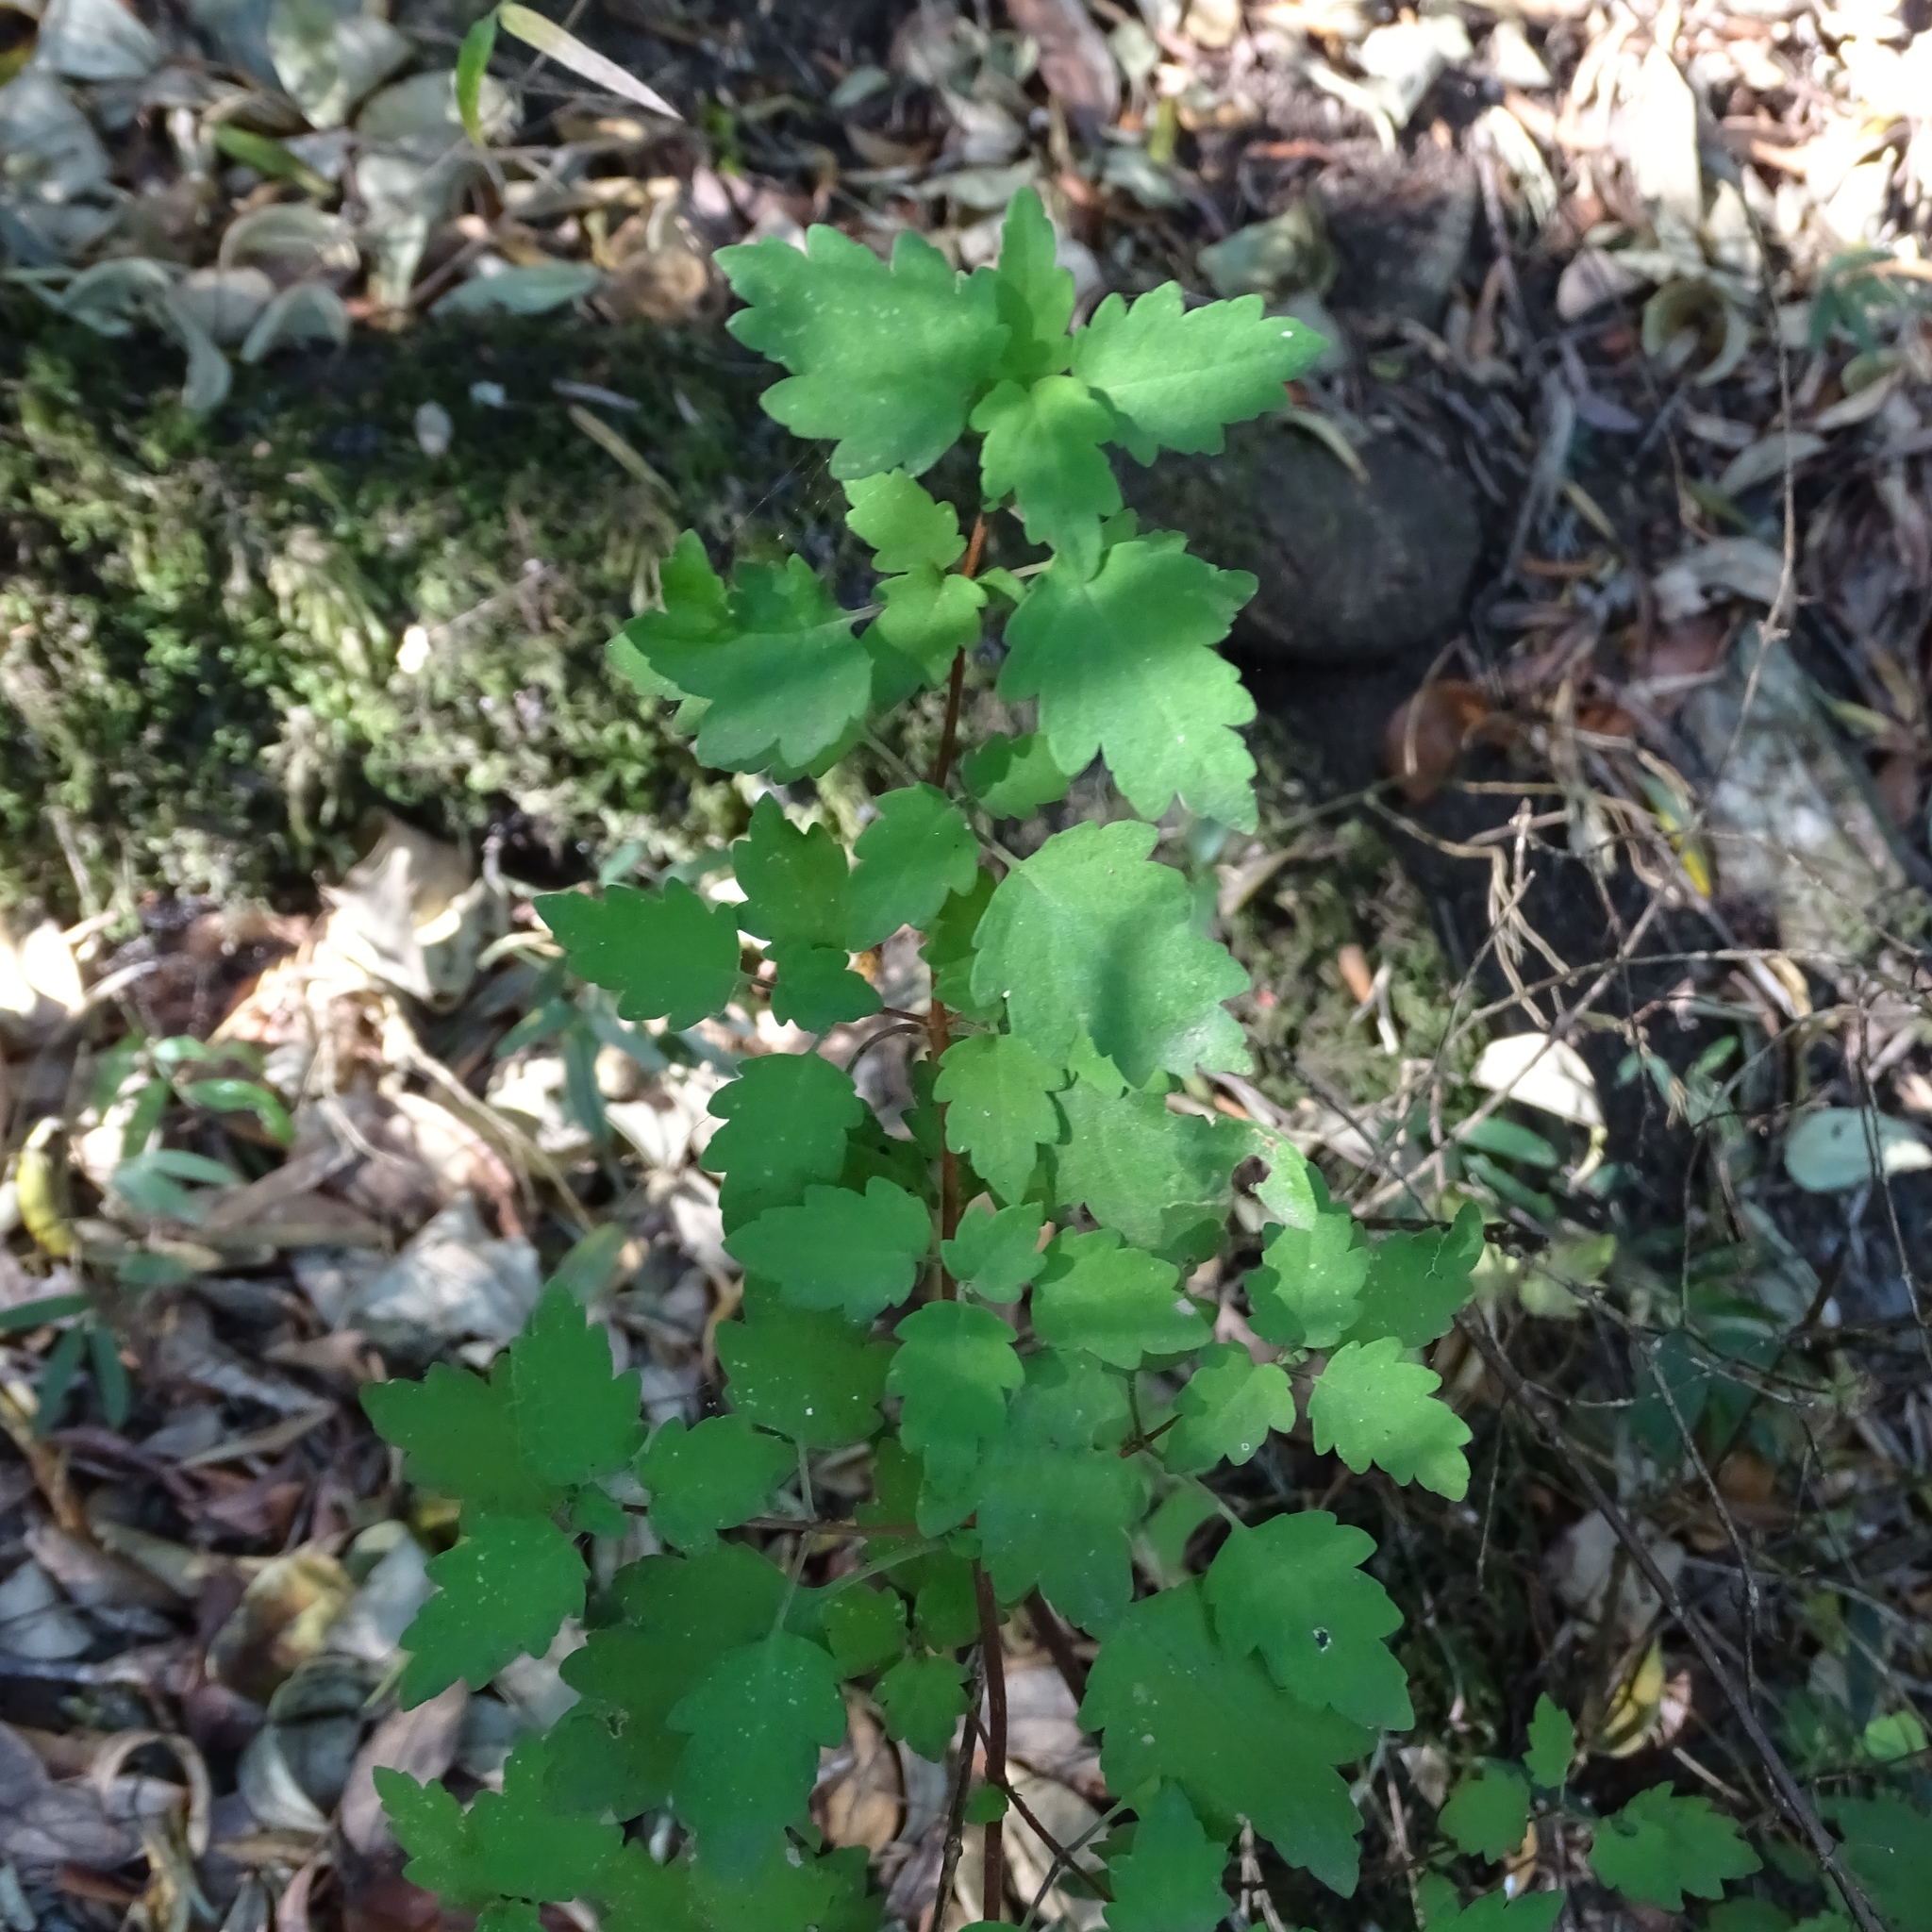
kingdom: Plantae
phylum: Tracheophyta
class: Magnoliopsida
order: Lamiales
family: Calceolariaceae
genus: Jovellana
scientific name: Jovellana violacea
